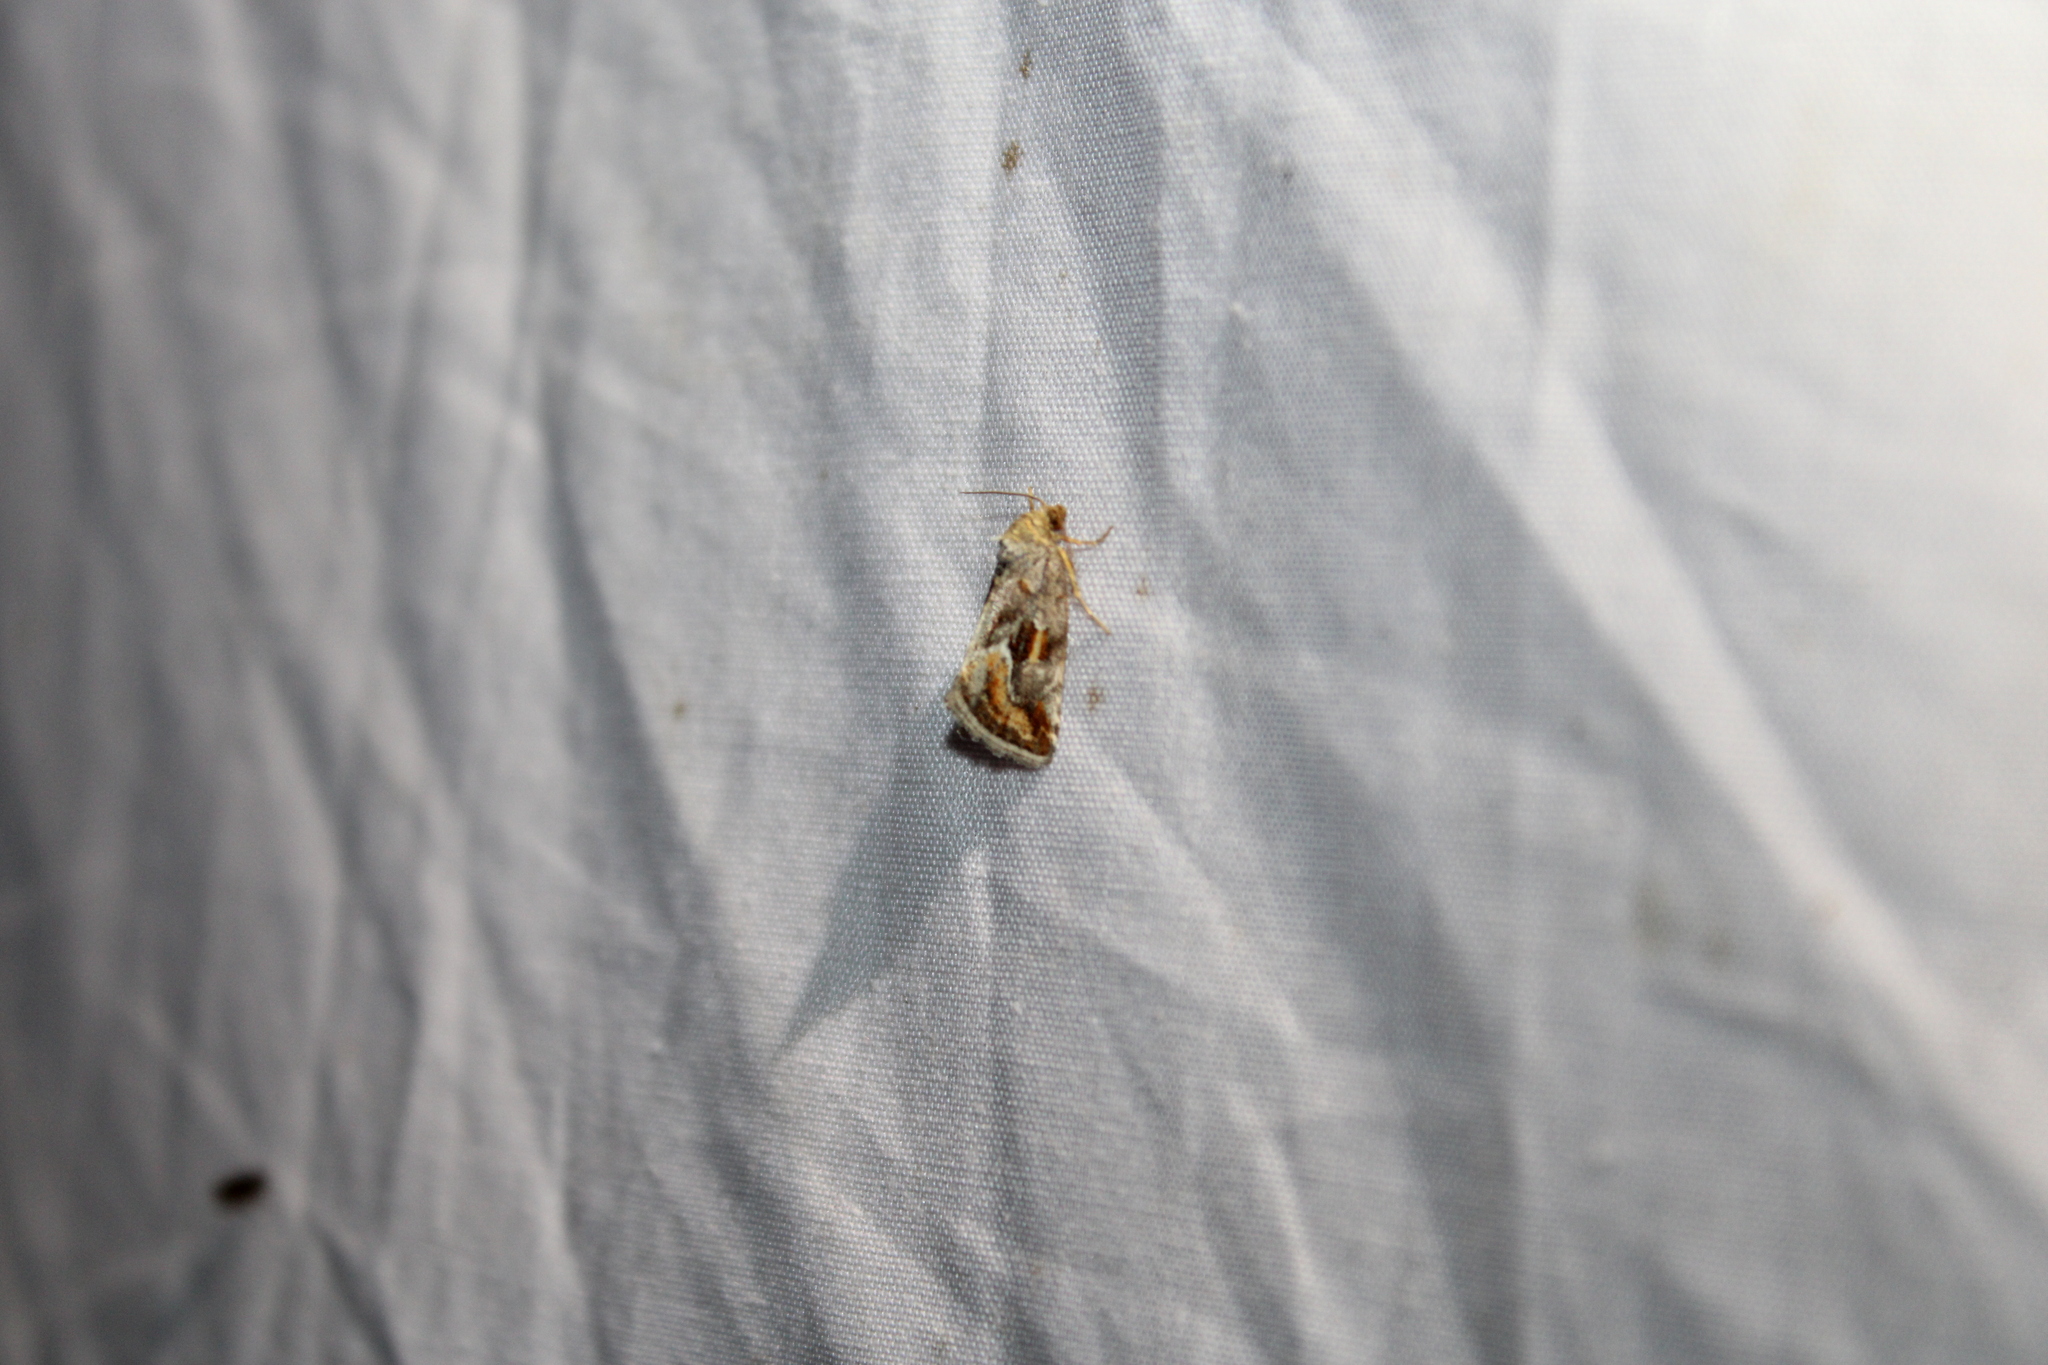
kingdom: Animalia
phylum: Arthropoda
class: Insecta
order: Lepidoptera
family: Noctuidae
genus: Deltote
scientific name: Deltote bellicula
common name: Bog glyph
